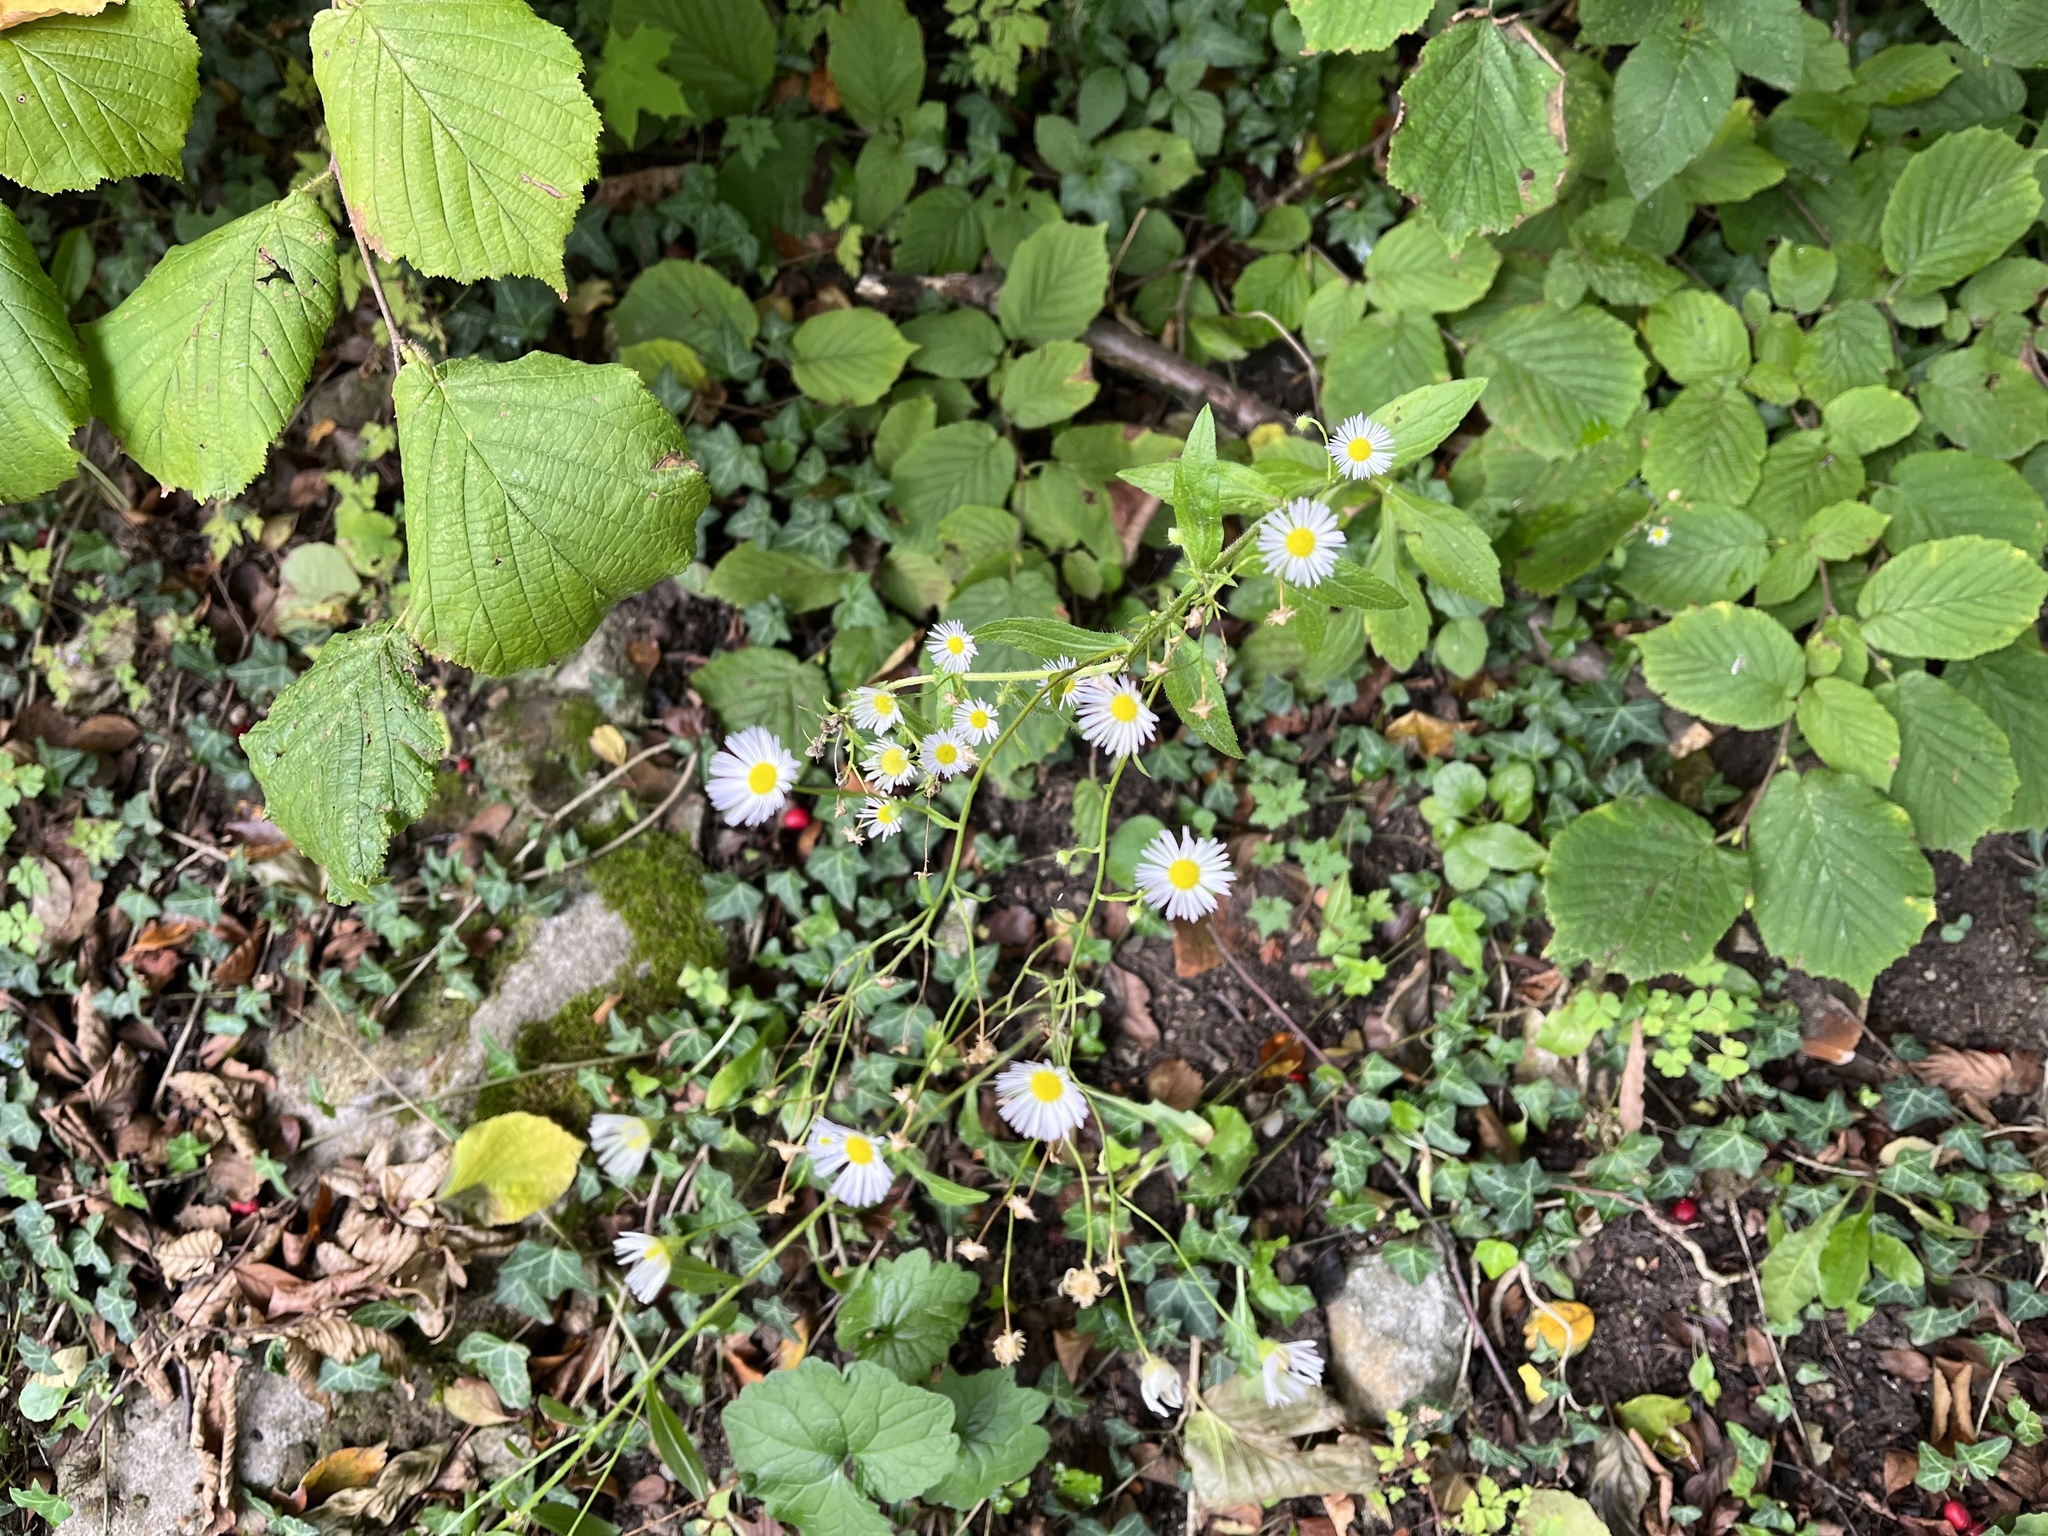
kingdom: Plantae
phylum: Tracheophyta
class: Magnoliopsida
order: Asterales
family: Asteraceae
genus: Erigeron
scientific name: Erigeron annuus
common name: Tall fleabane
